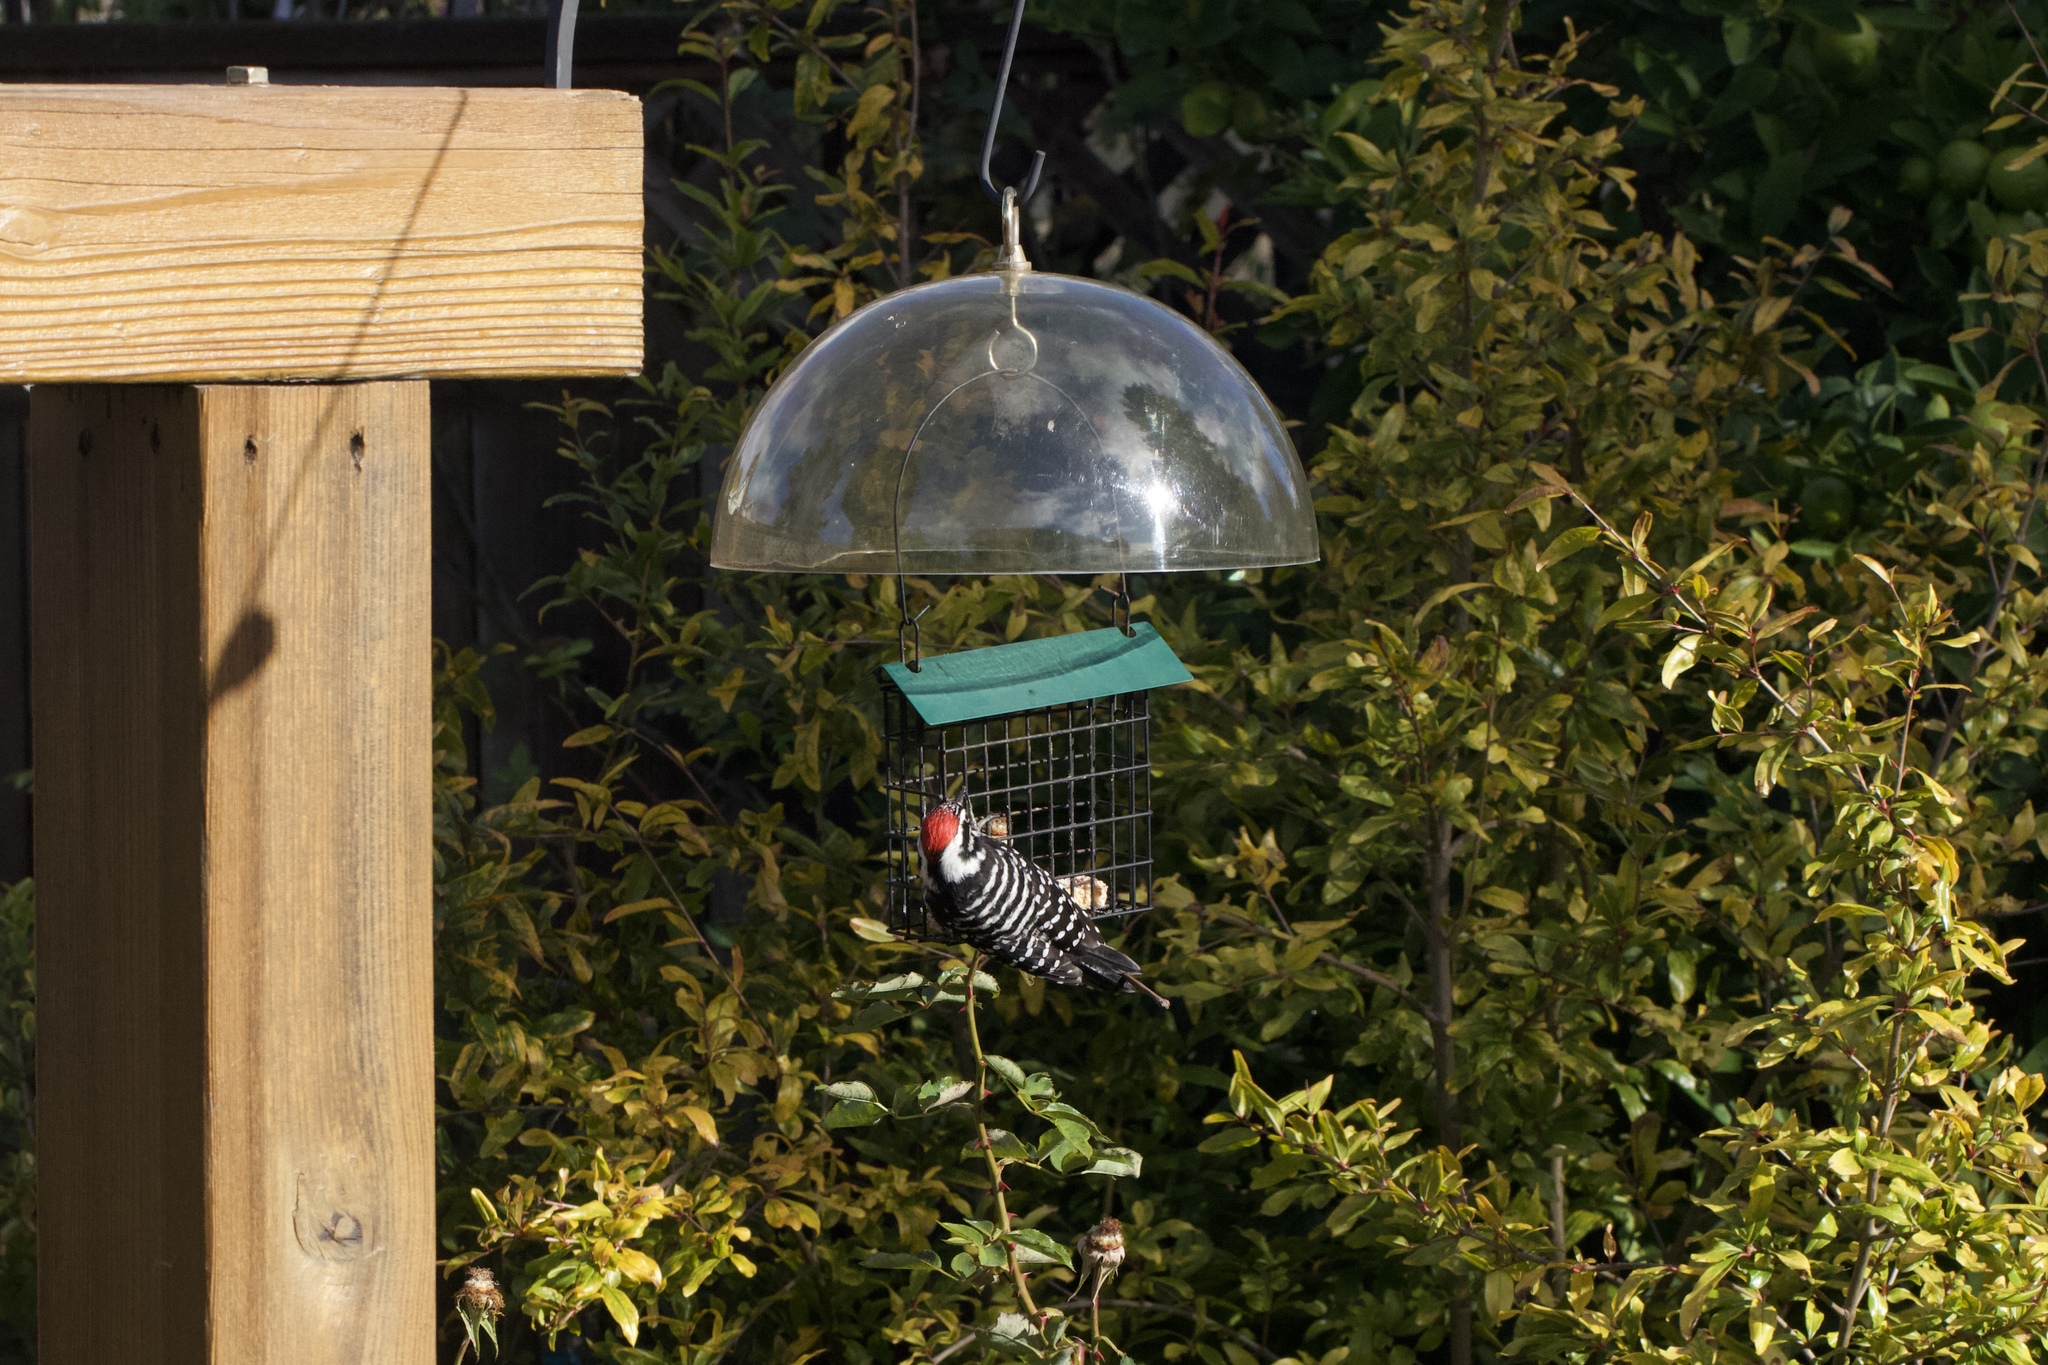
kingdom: Animalia
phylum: Chordata
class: Aves
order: Piciformes
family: Picidae
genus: Dryobates
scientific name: Dryobates nuttallii
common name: Nuttall's woodpecker
